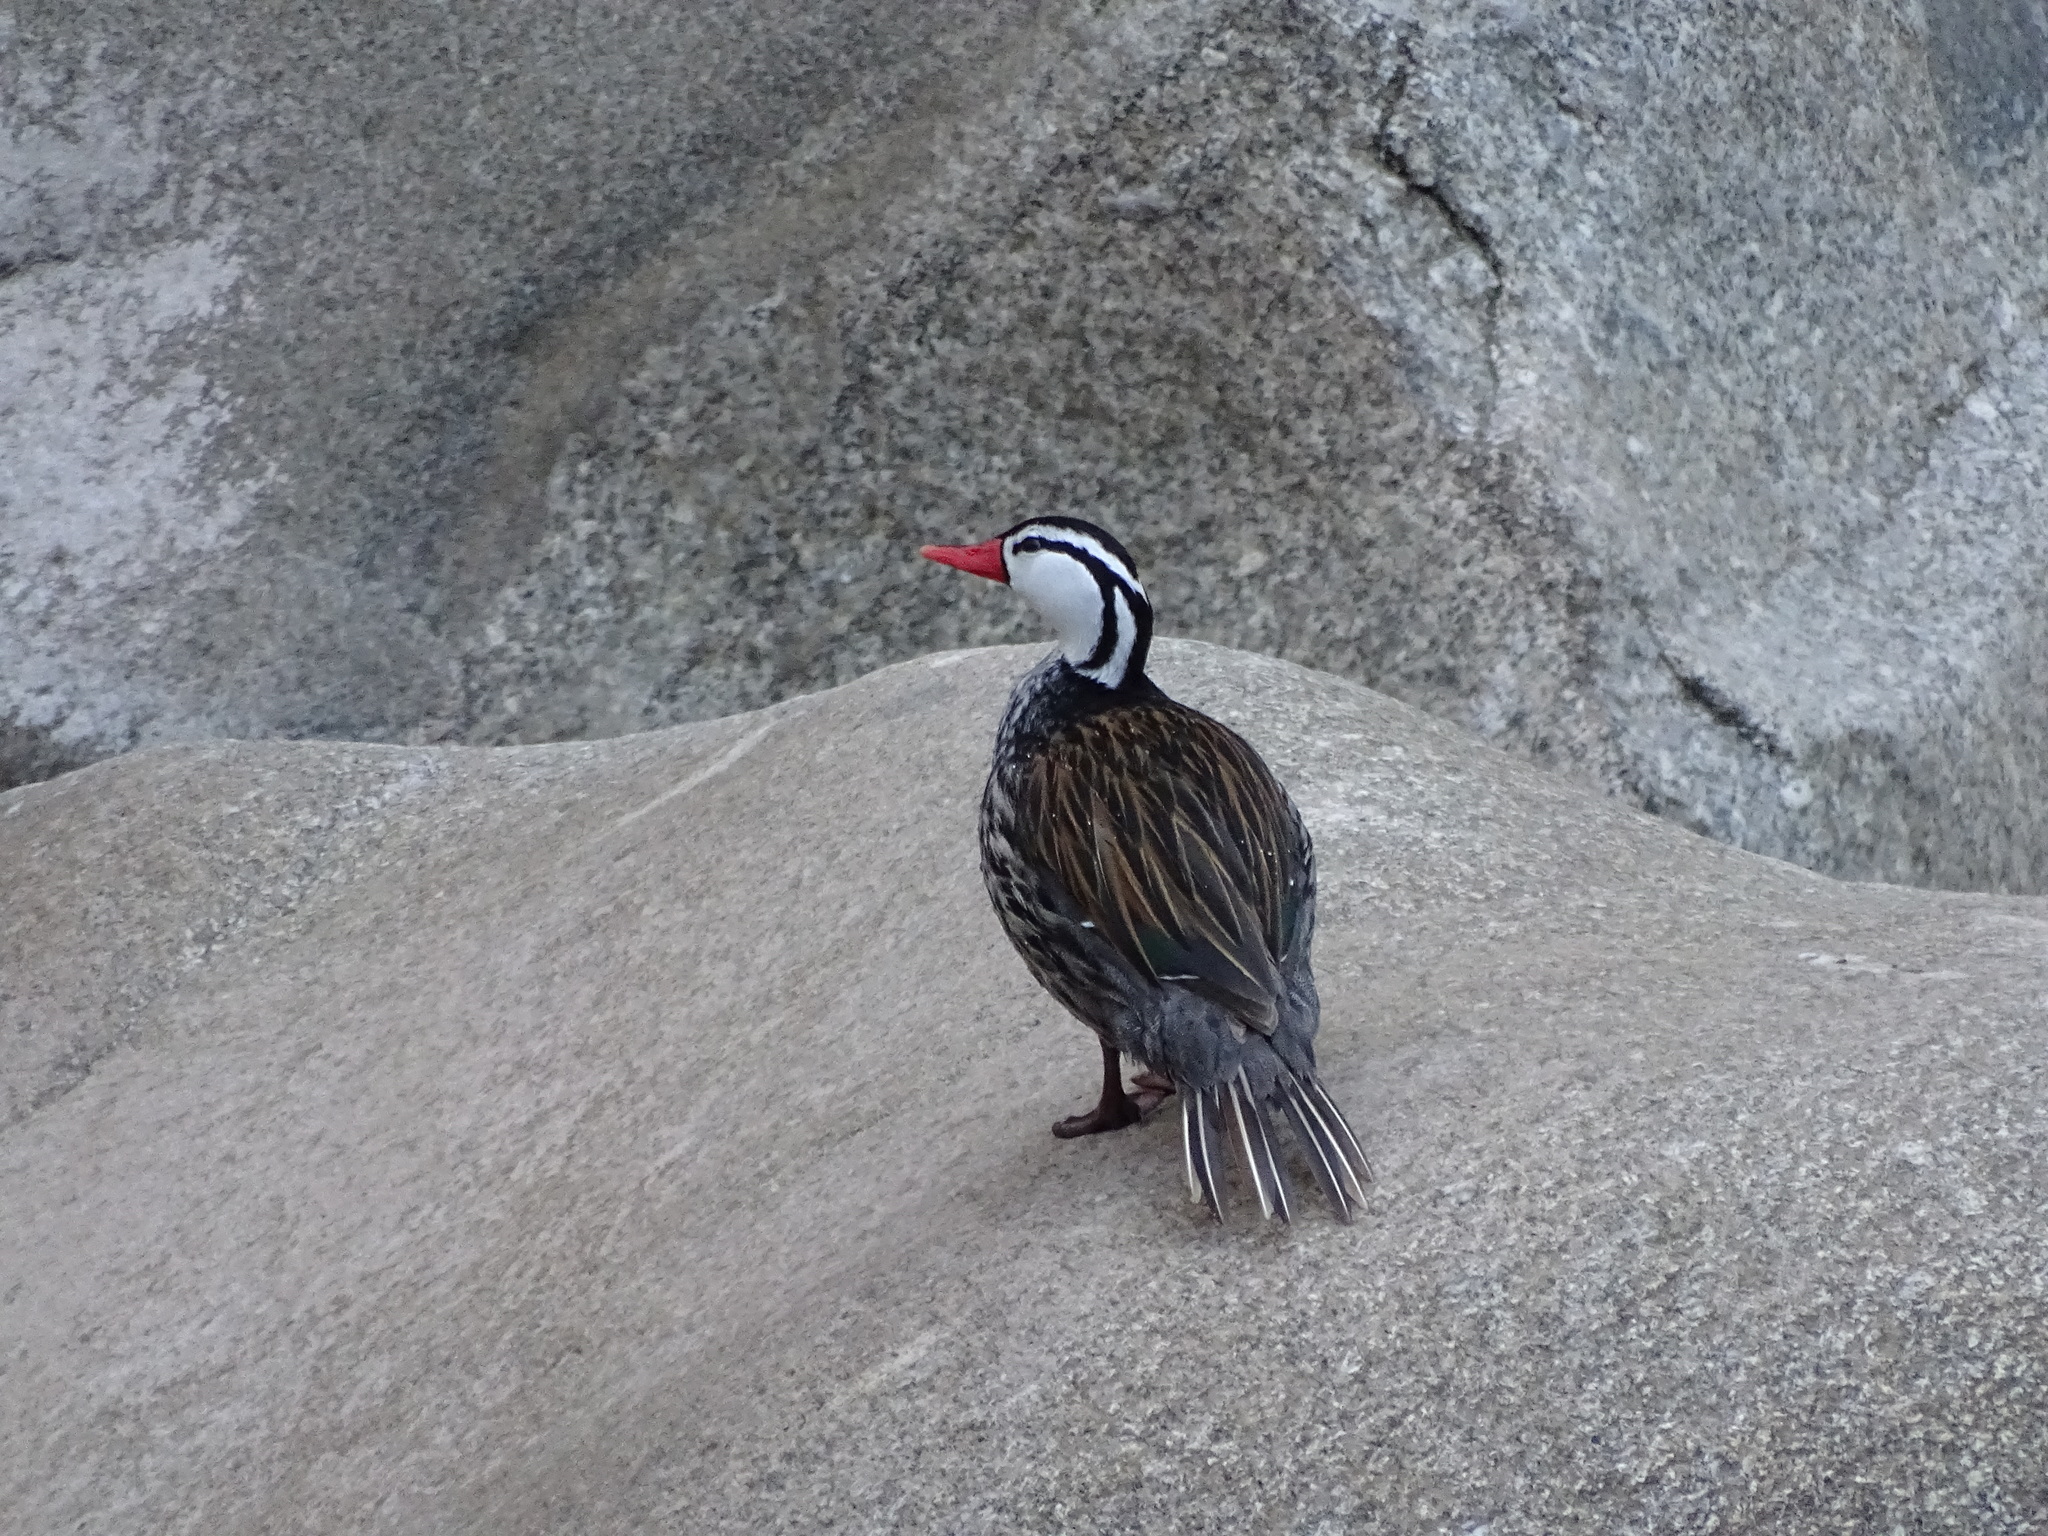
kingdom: Animalia
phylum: Chordata
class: Aves
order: Anseriformes
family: Anatidae
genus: Merganetta
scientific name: Merganetta armata
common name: Torrent duck
